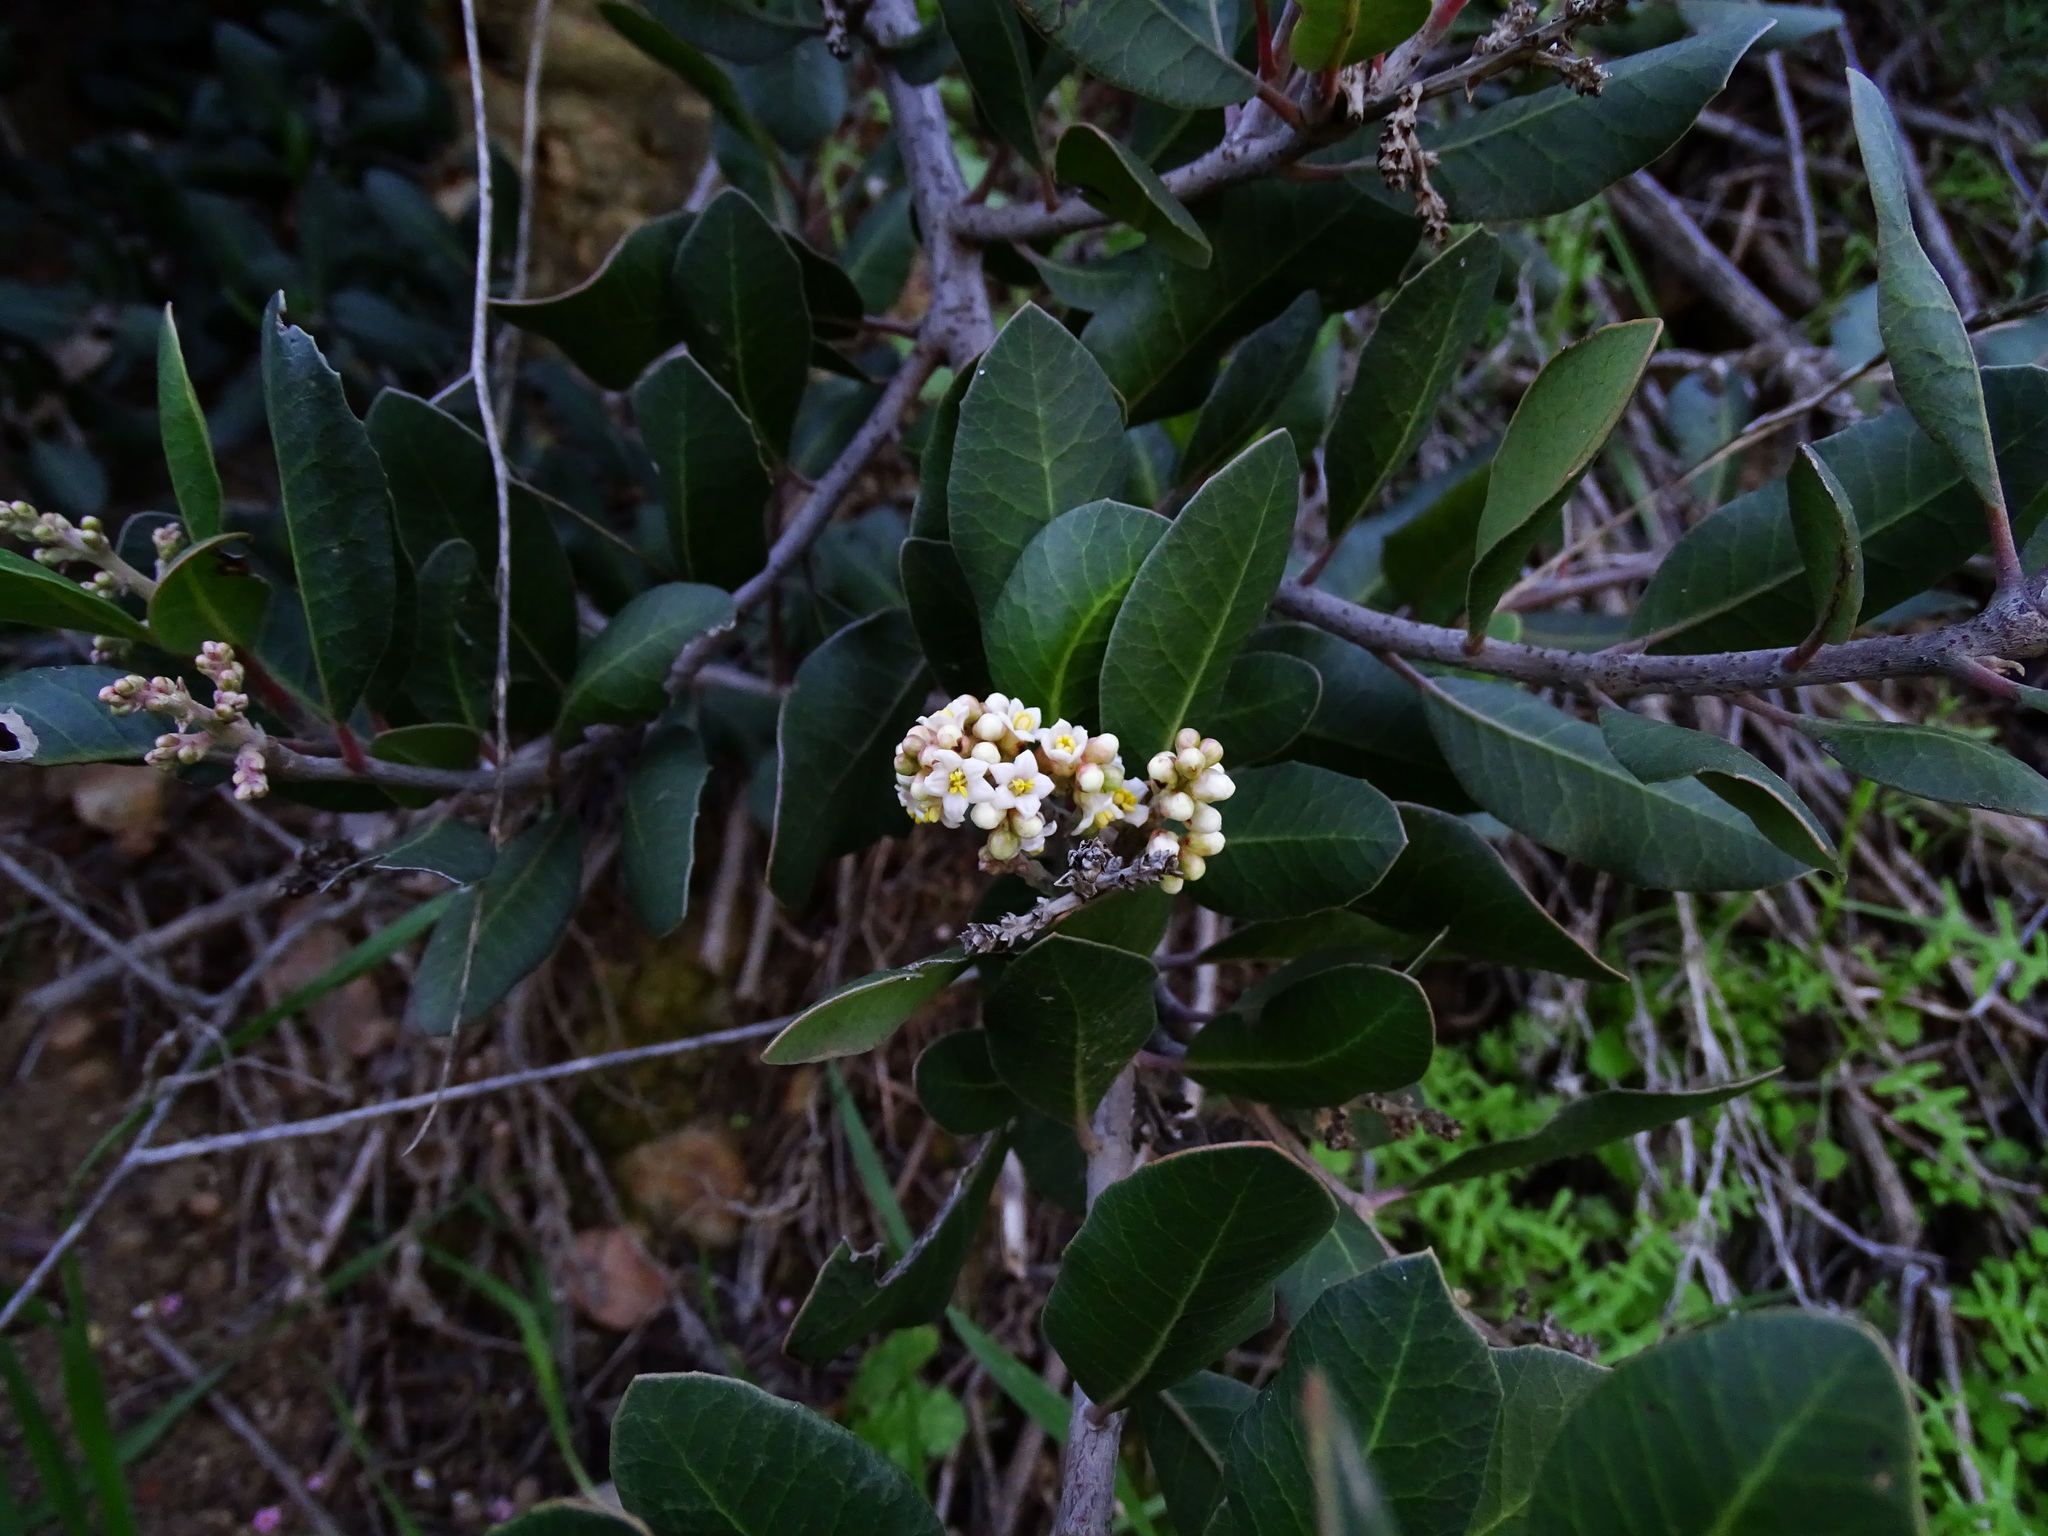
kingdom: Plantae
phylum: Tracheophyta
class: Magnoliopsida
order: Sapindales
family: Anacardiaceae
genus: Rhus
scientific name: Rhus integrifolia
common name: Lemonade sumac
